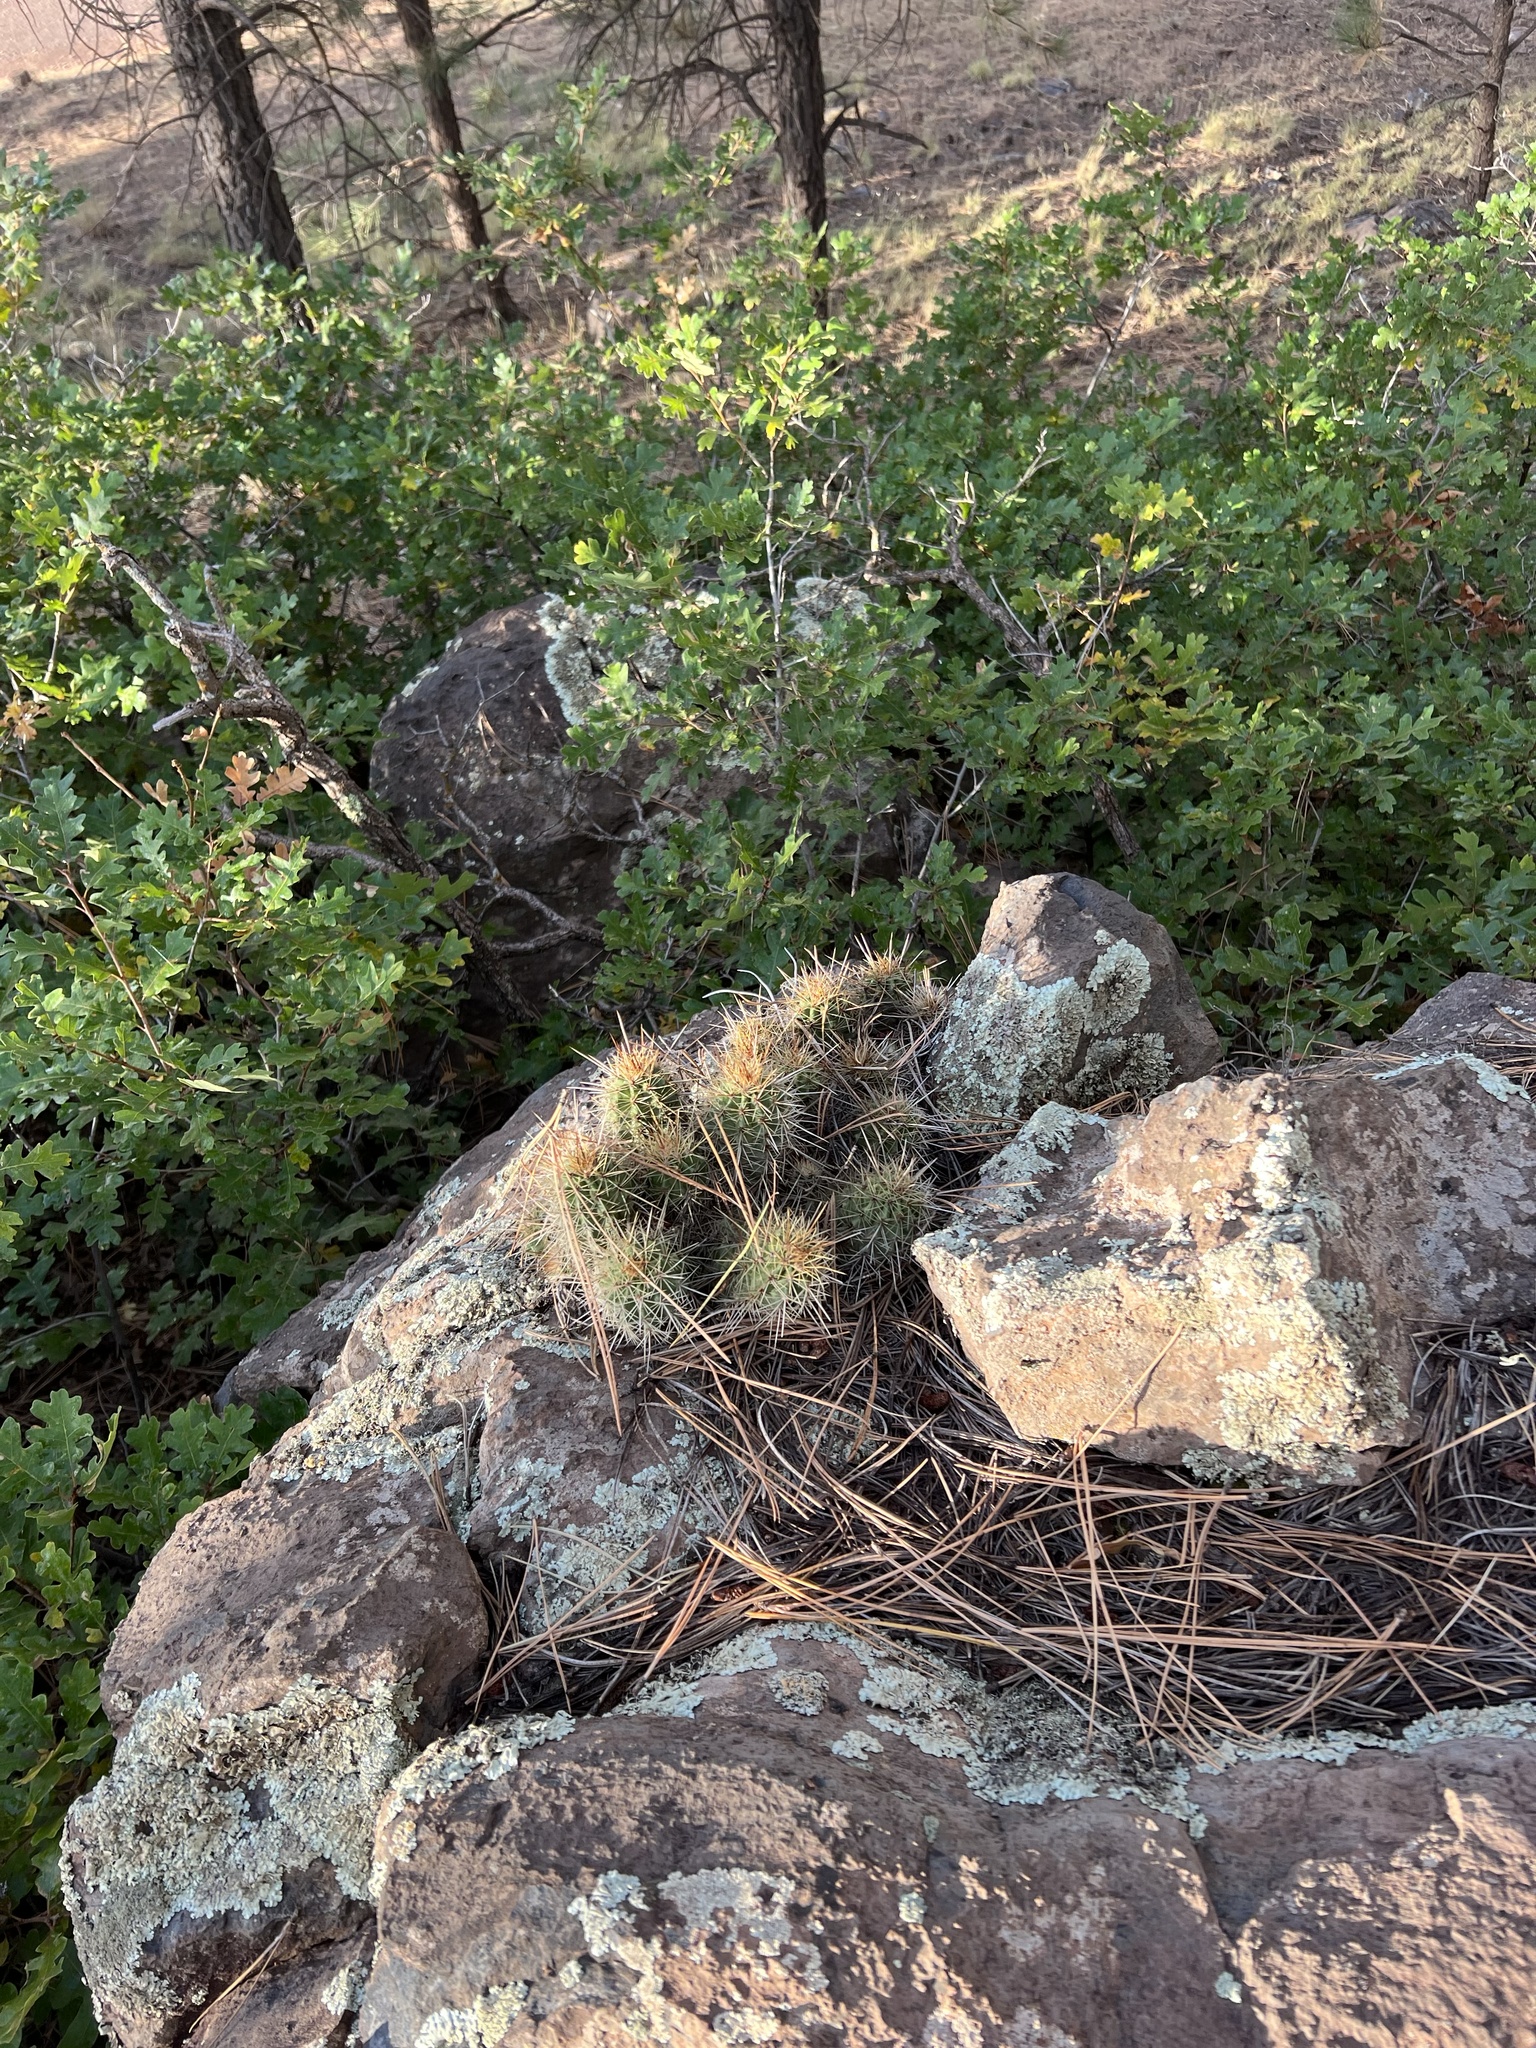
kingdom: Plantae
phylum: Tracheophyta
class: Magnoliopsida
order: Caryophyllales
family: Cactaceae
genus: Echinocereus
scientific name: Echinocereus bakeri
